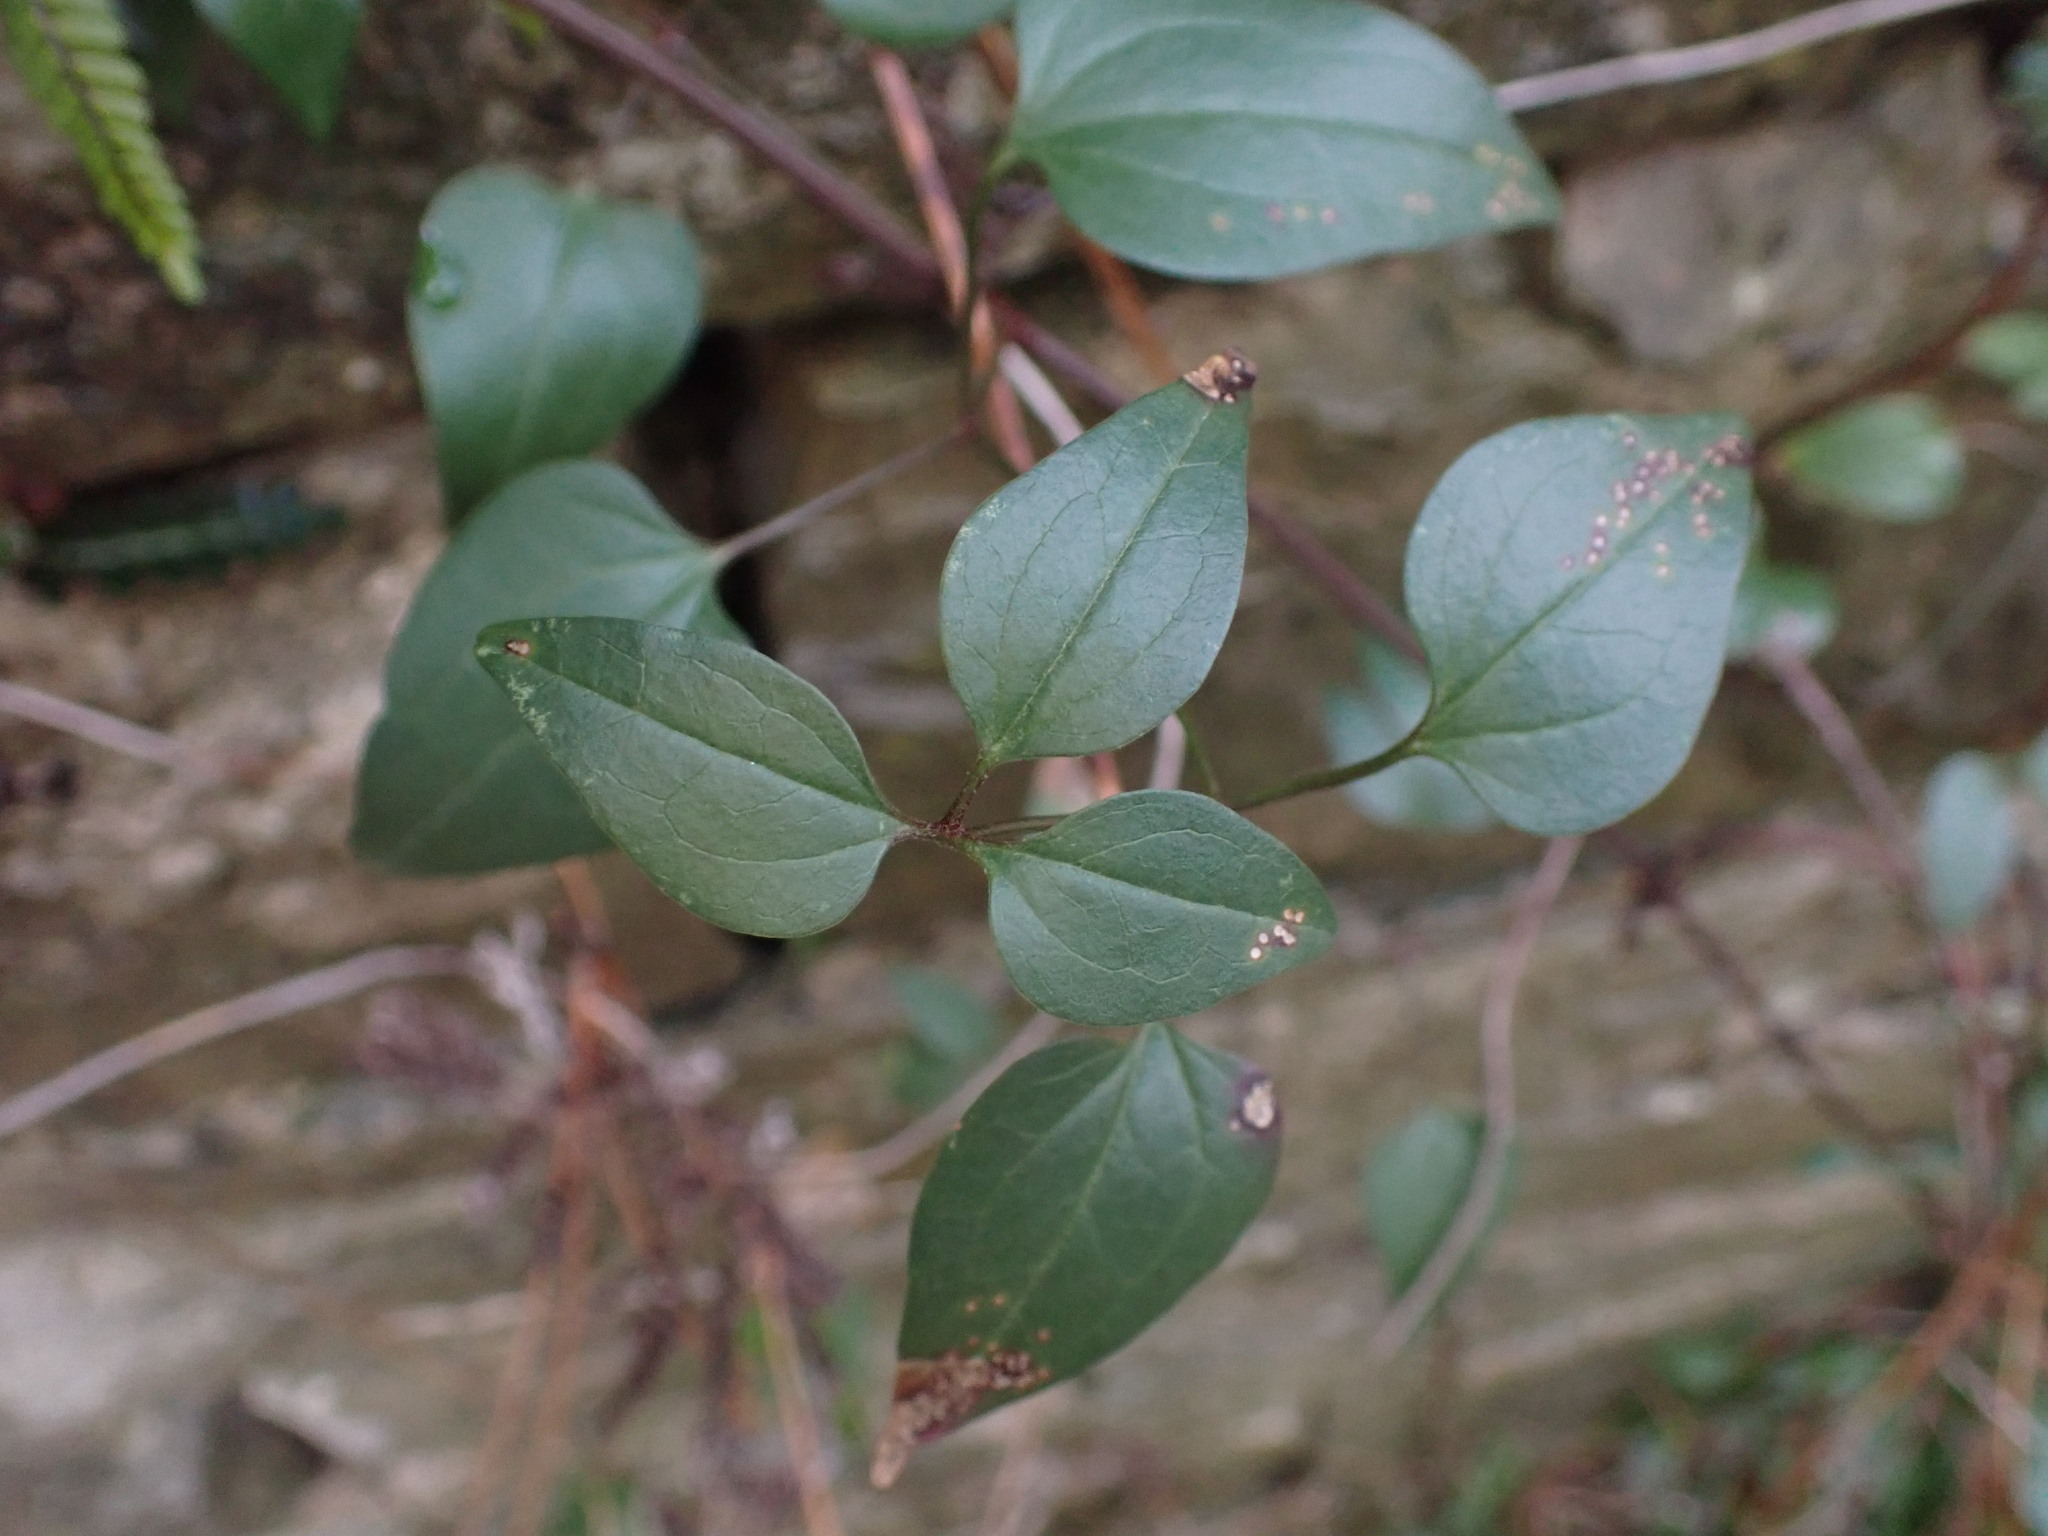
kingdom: Plantae
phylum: Tracheophyta
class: Magnoliopsida
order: Ranunculales
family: Ranunculaceae
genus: Clematis
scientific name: Clematis flammula
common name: Virgin's-bower
